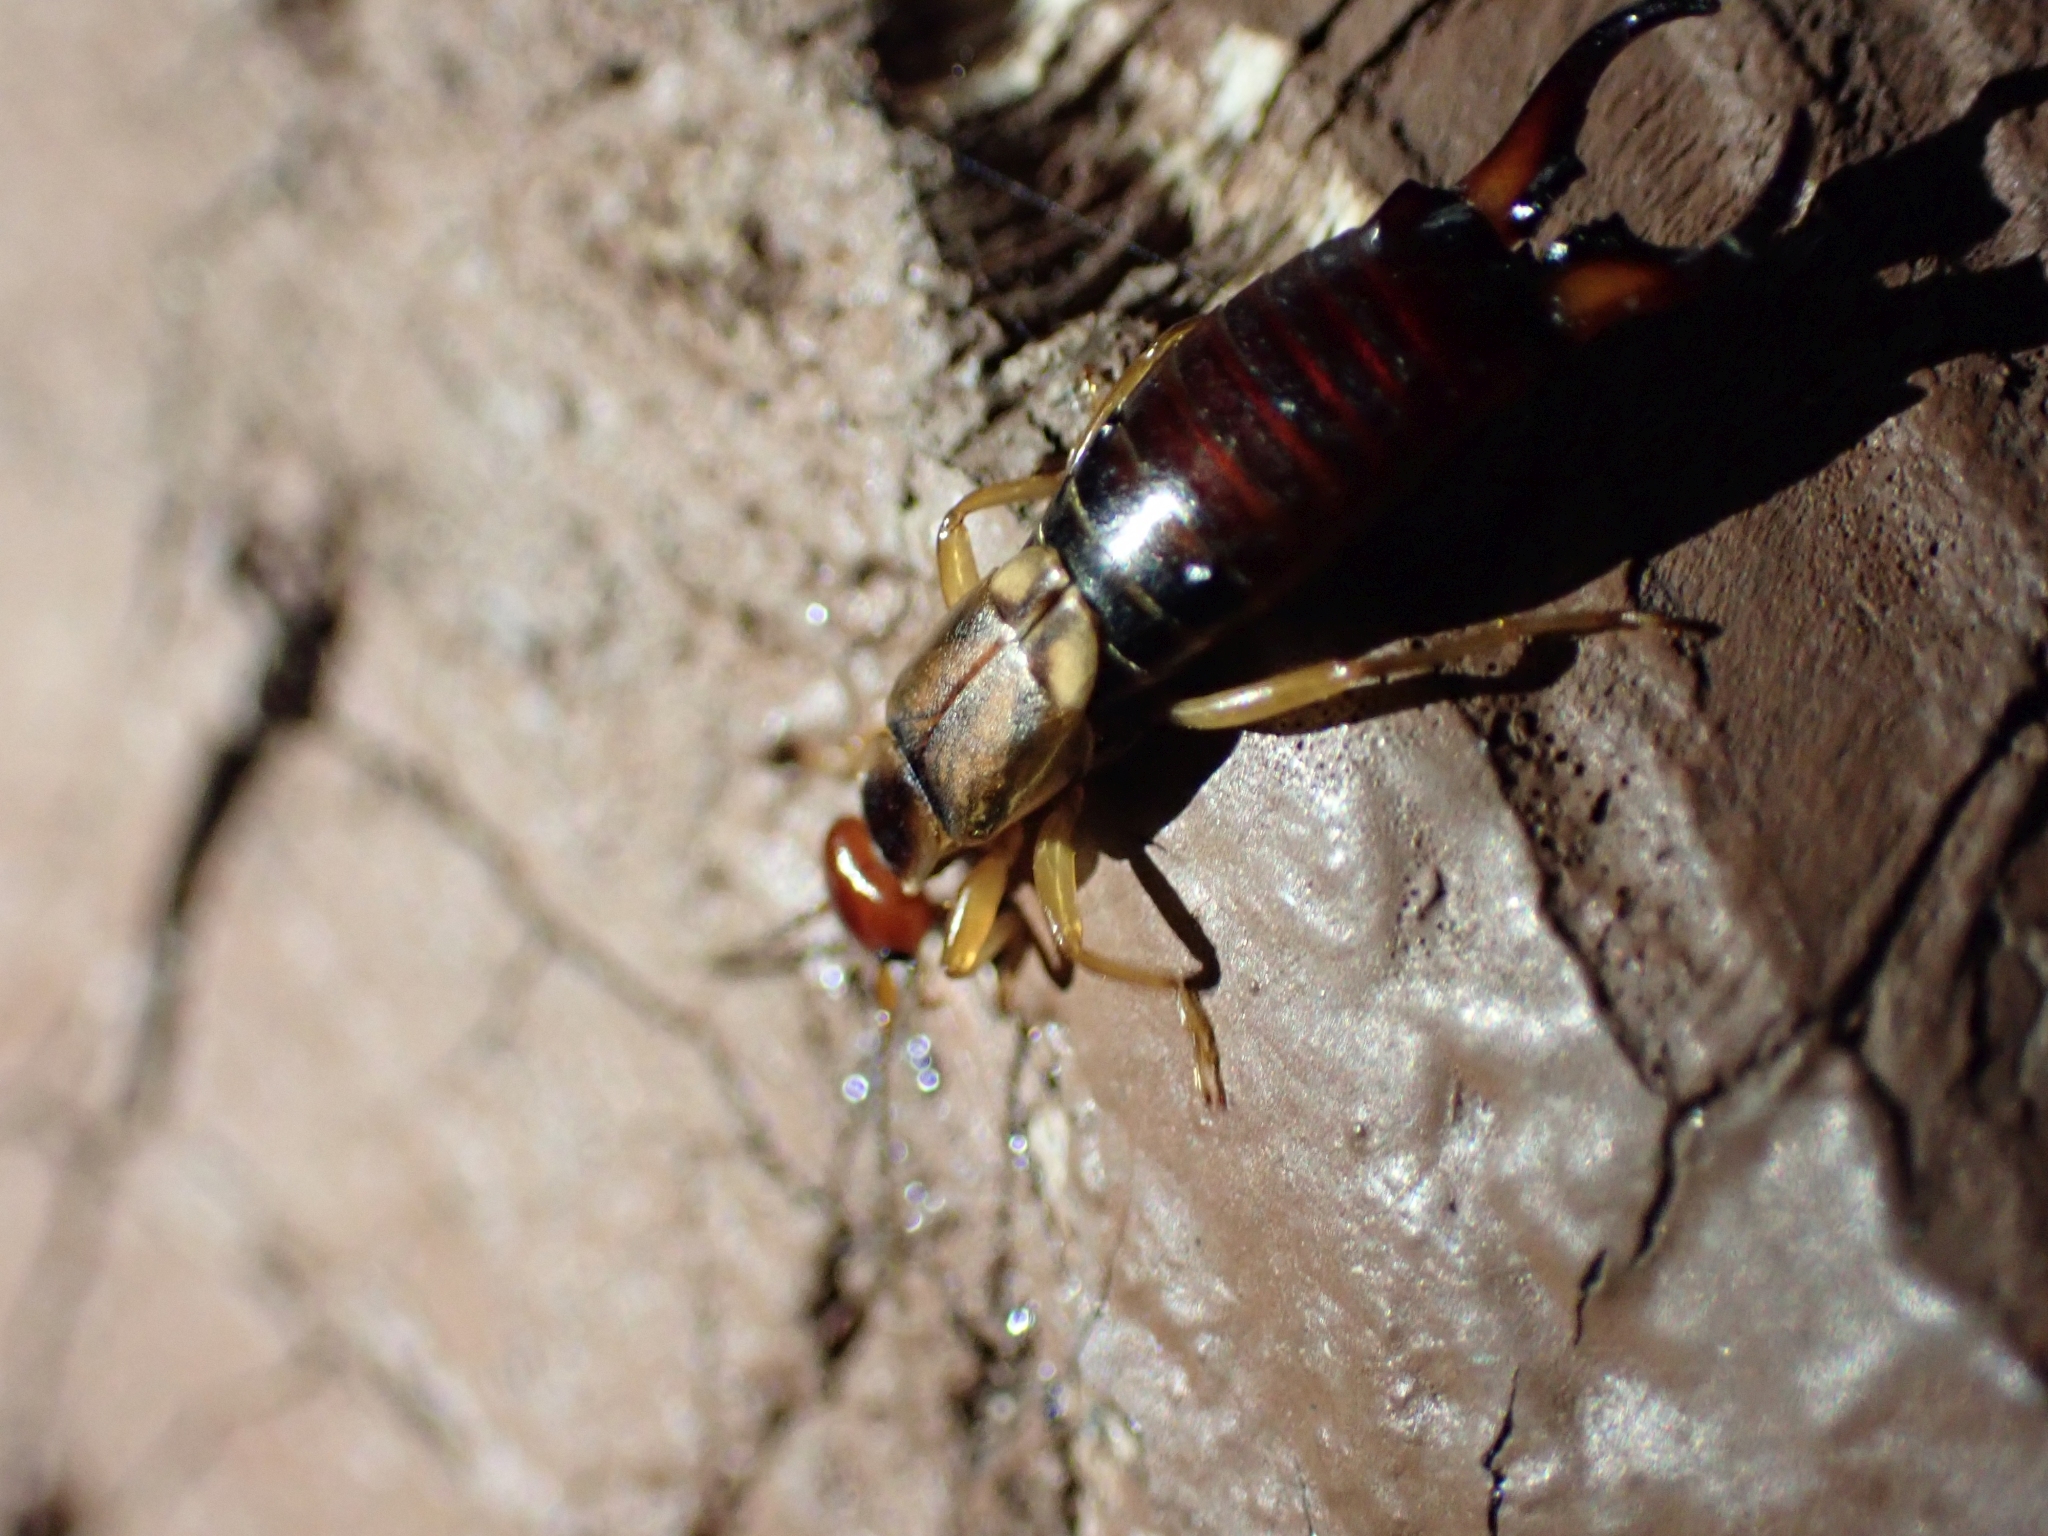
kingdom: Animalia
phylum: Arthropoda
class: Insecta
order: Dermaptera
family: Forficulidae
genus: Forficula
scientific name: Forficula
